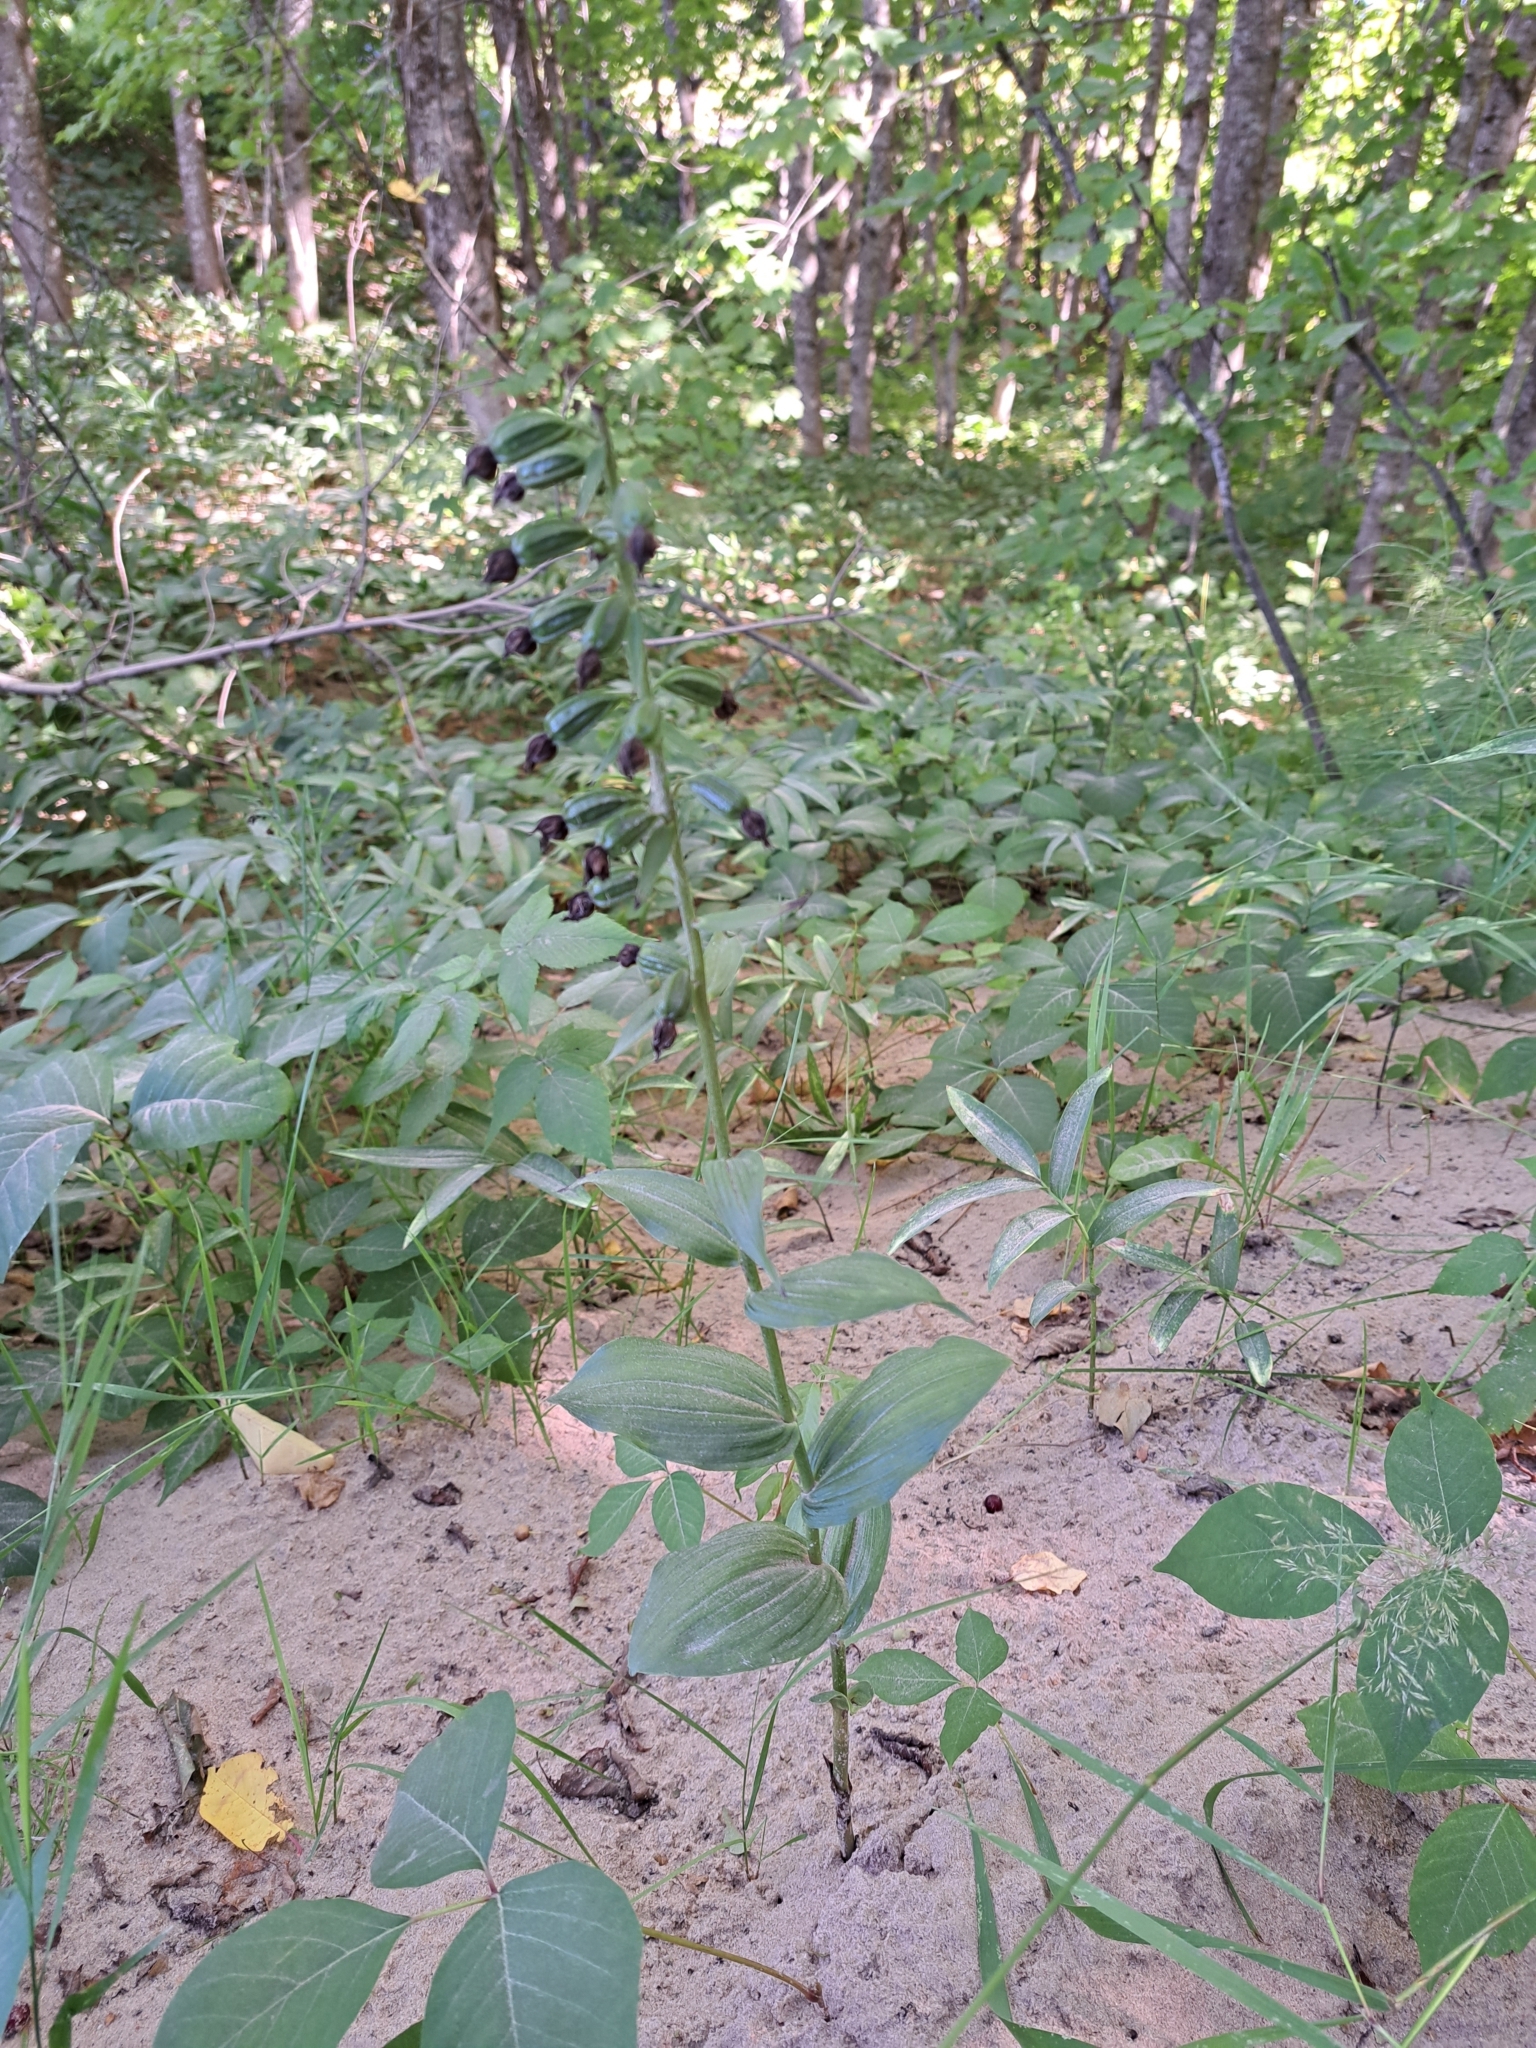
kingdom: Plantae
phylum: Tracheophyta
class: Liliopsida
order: Asparagales
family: Orchidaceae
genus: Epipactis
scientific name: Epipactis helleborine
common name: Broad-leaved helleborine
